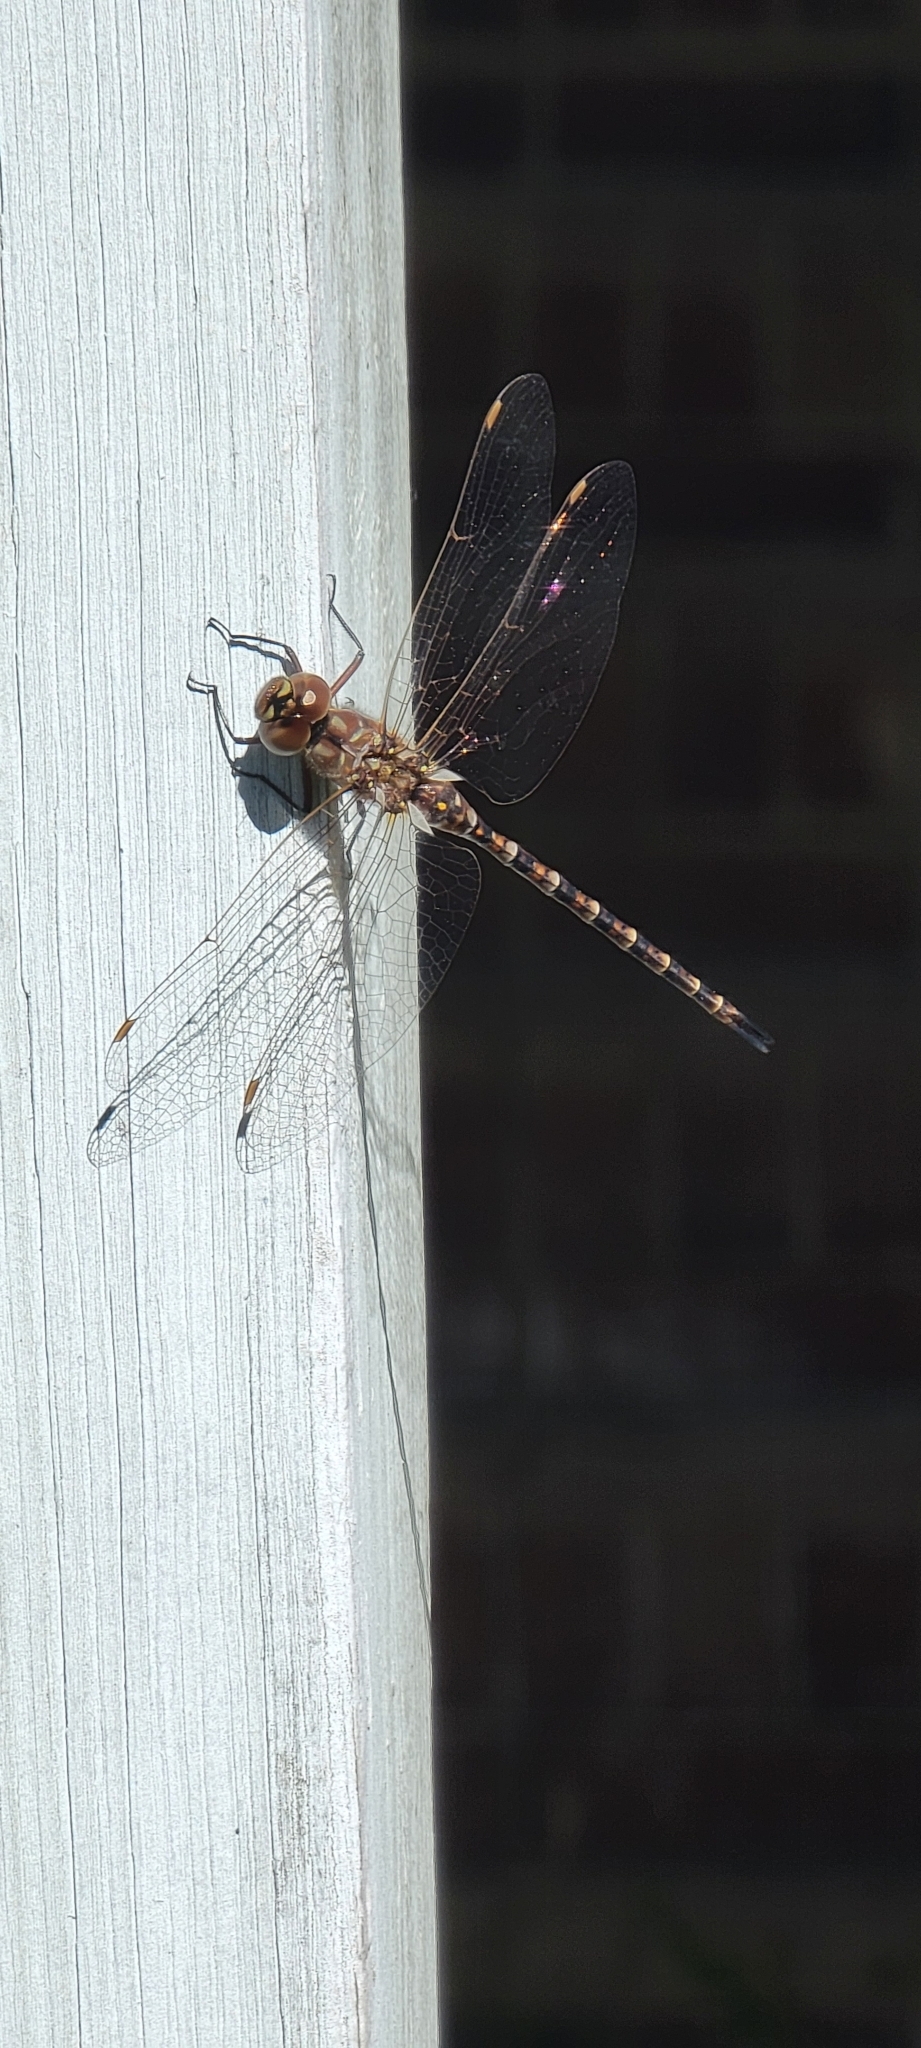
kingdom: Animalia
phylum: Arthropoda
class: Insecta
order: Odonata
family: Aeshnidae
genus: Gomphaeschna
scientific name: Gomphaeschna antilope
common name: Taper-tailed darner
